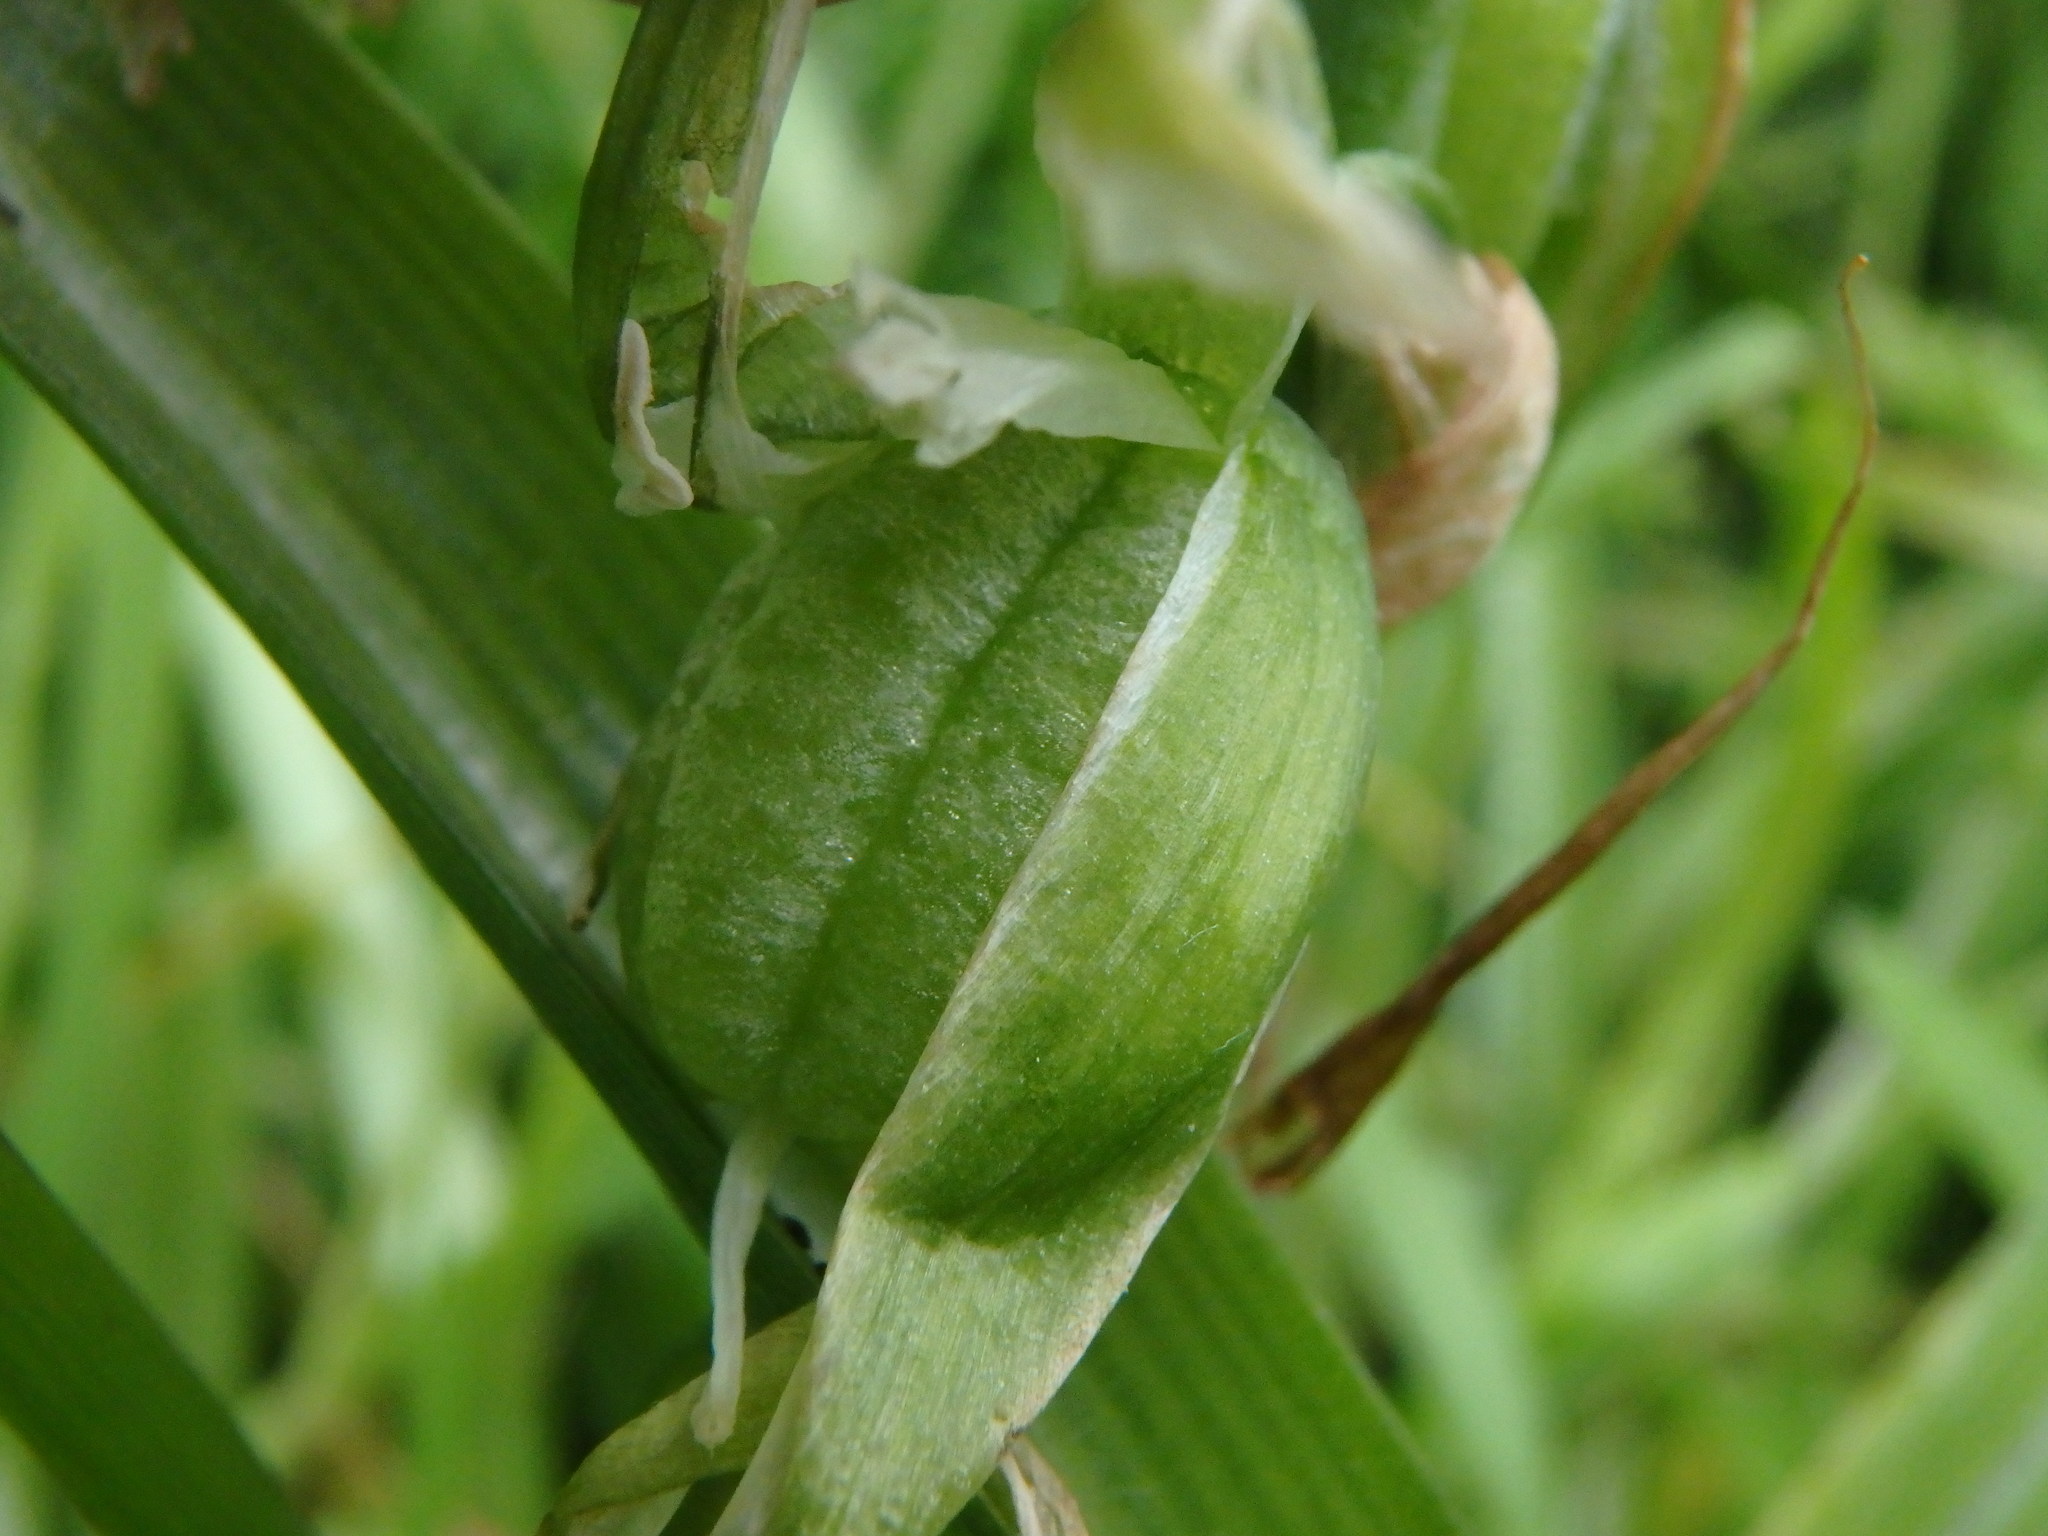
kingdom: Plantae
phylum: Tracheophyta
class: Liliopsida
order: Asparagales
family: Asparagaceae
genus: Ornithogalum
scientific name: Ornithogalum nutans
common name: Drooping star-of-bethlehem
